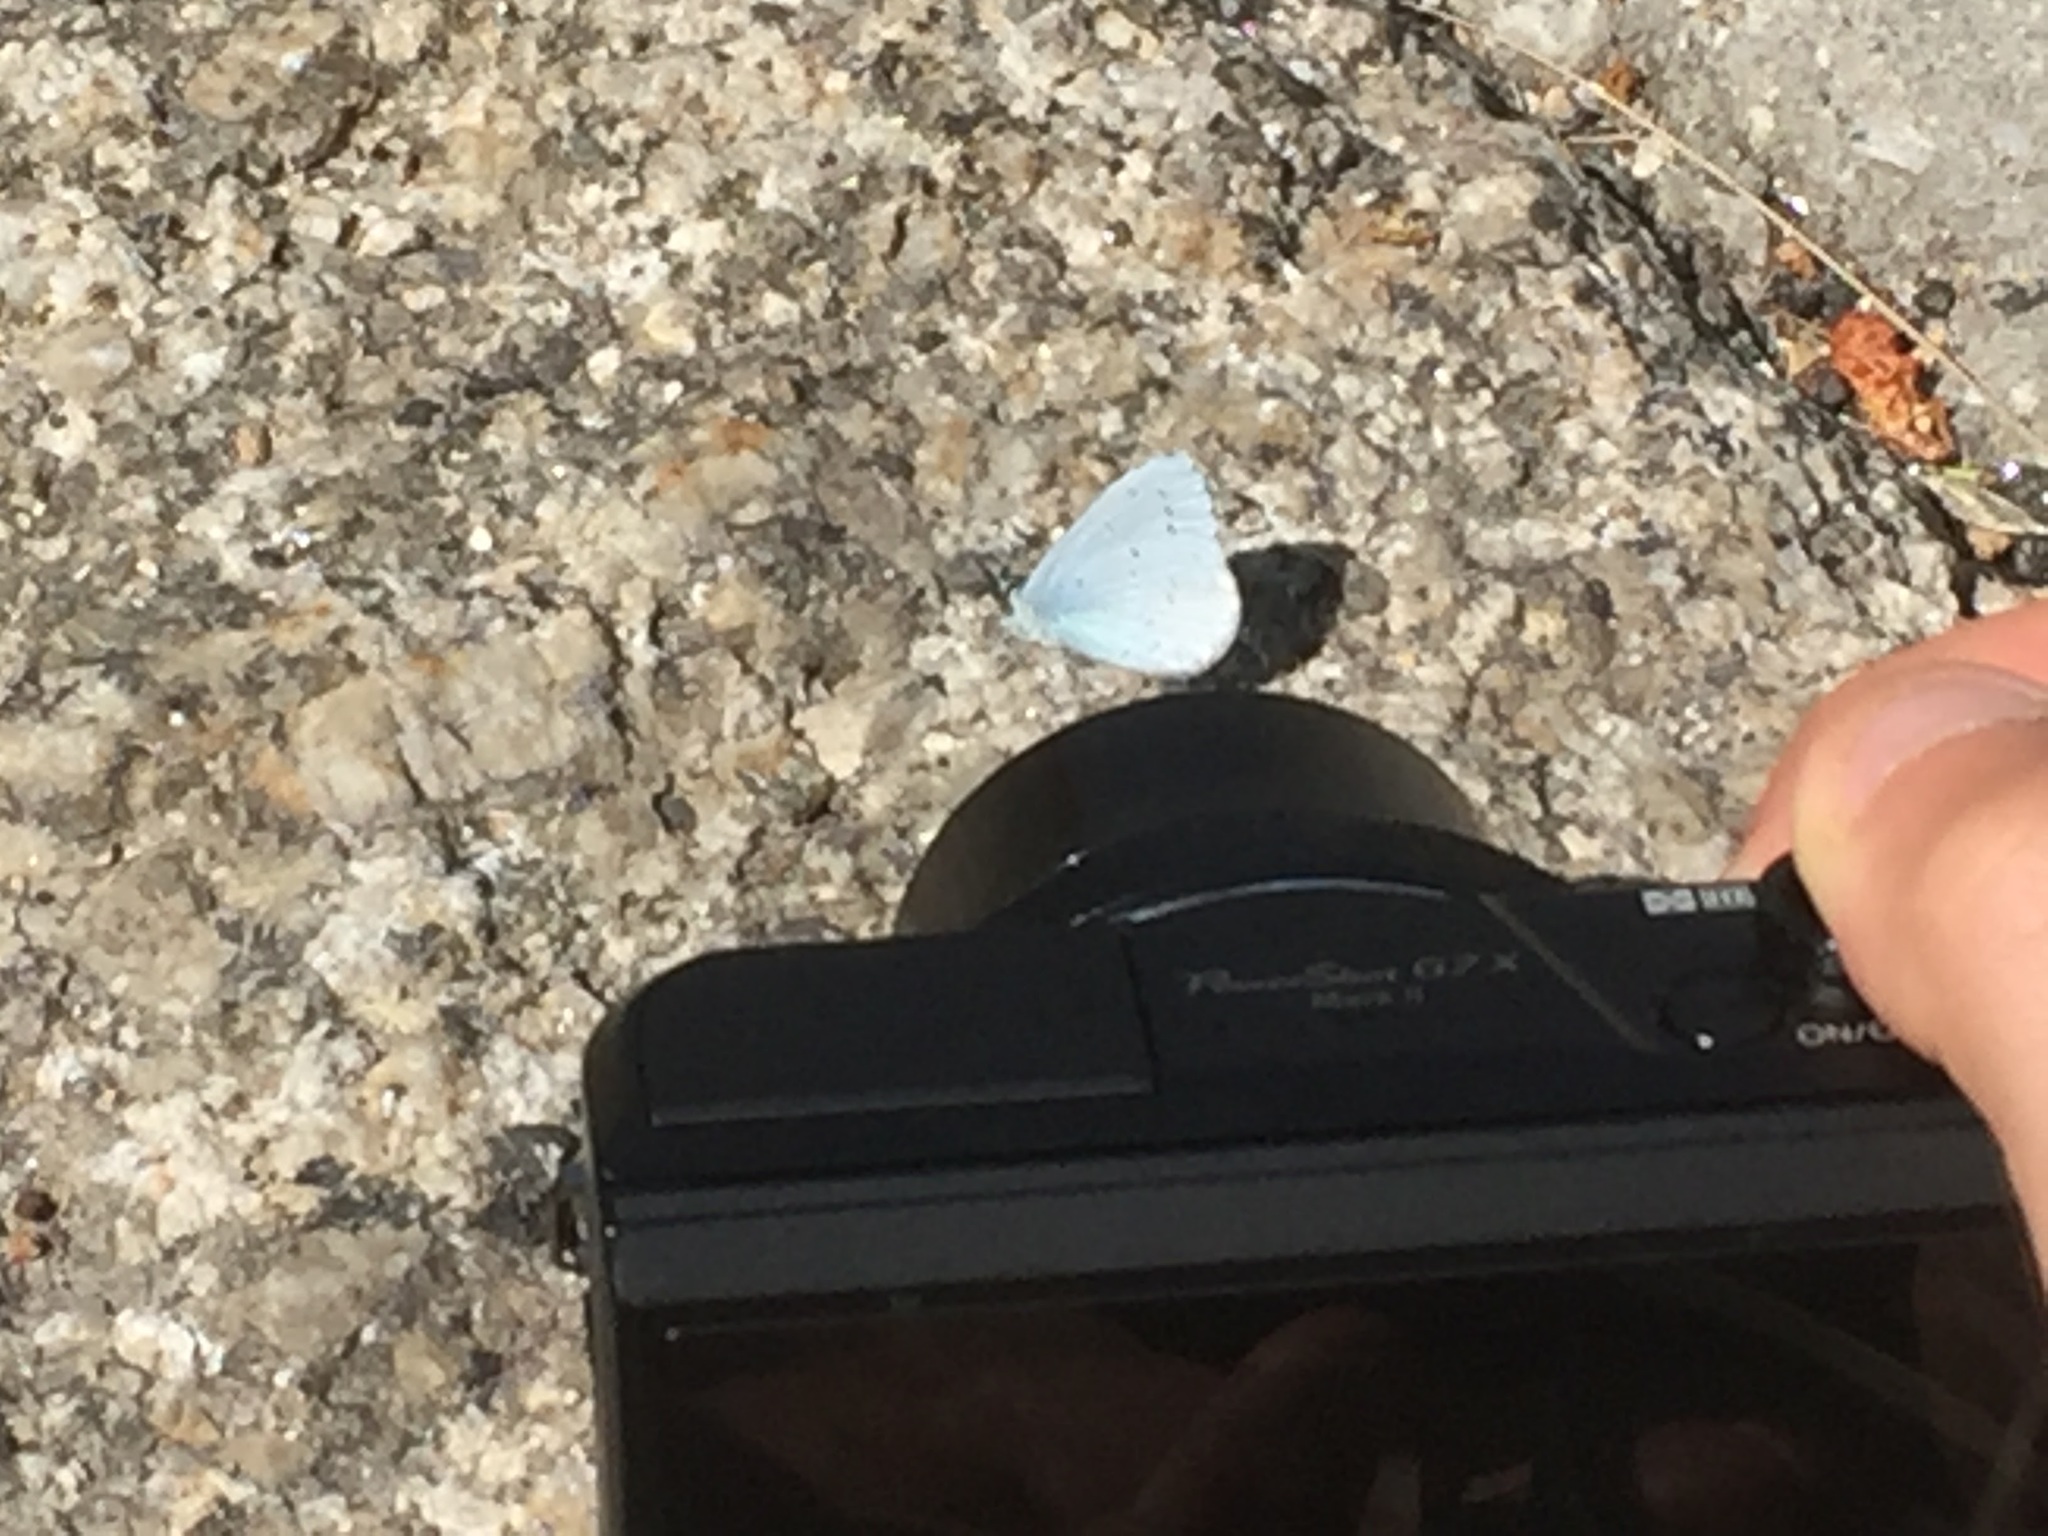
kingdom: Animalia
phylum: Arthropoda
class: Insecta
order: Lepidoptera
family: Lycaenidae
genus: Celastrina
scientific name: Celastrina argiolus
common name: Holly blue
